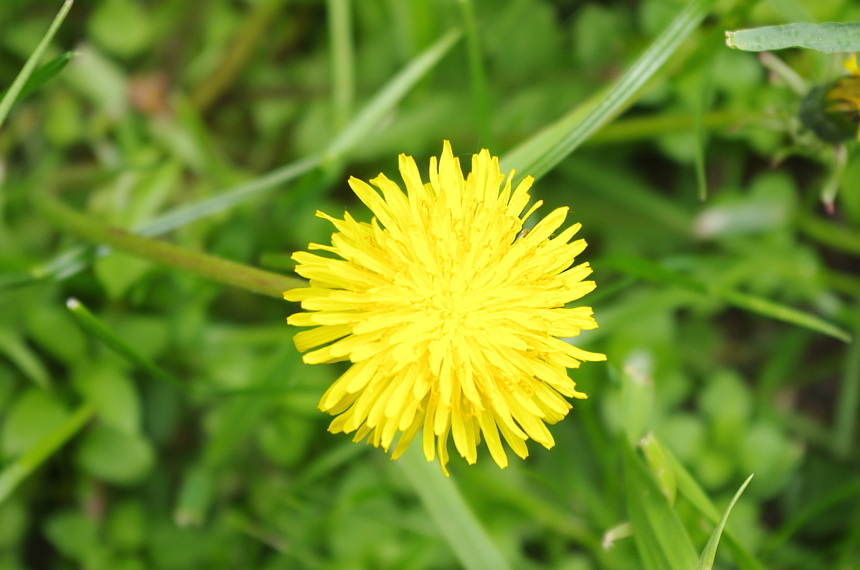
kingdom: Plantae
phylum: Tracheophyta
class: Magnoliopsida
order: Asterales
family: Asteraceae
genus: Taraxacum
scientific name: Taraxacum officinale
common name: Common dandelion
